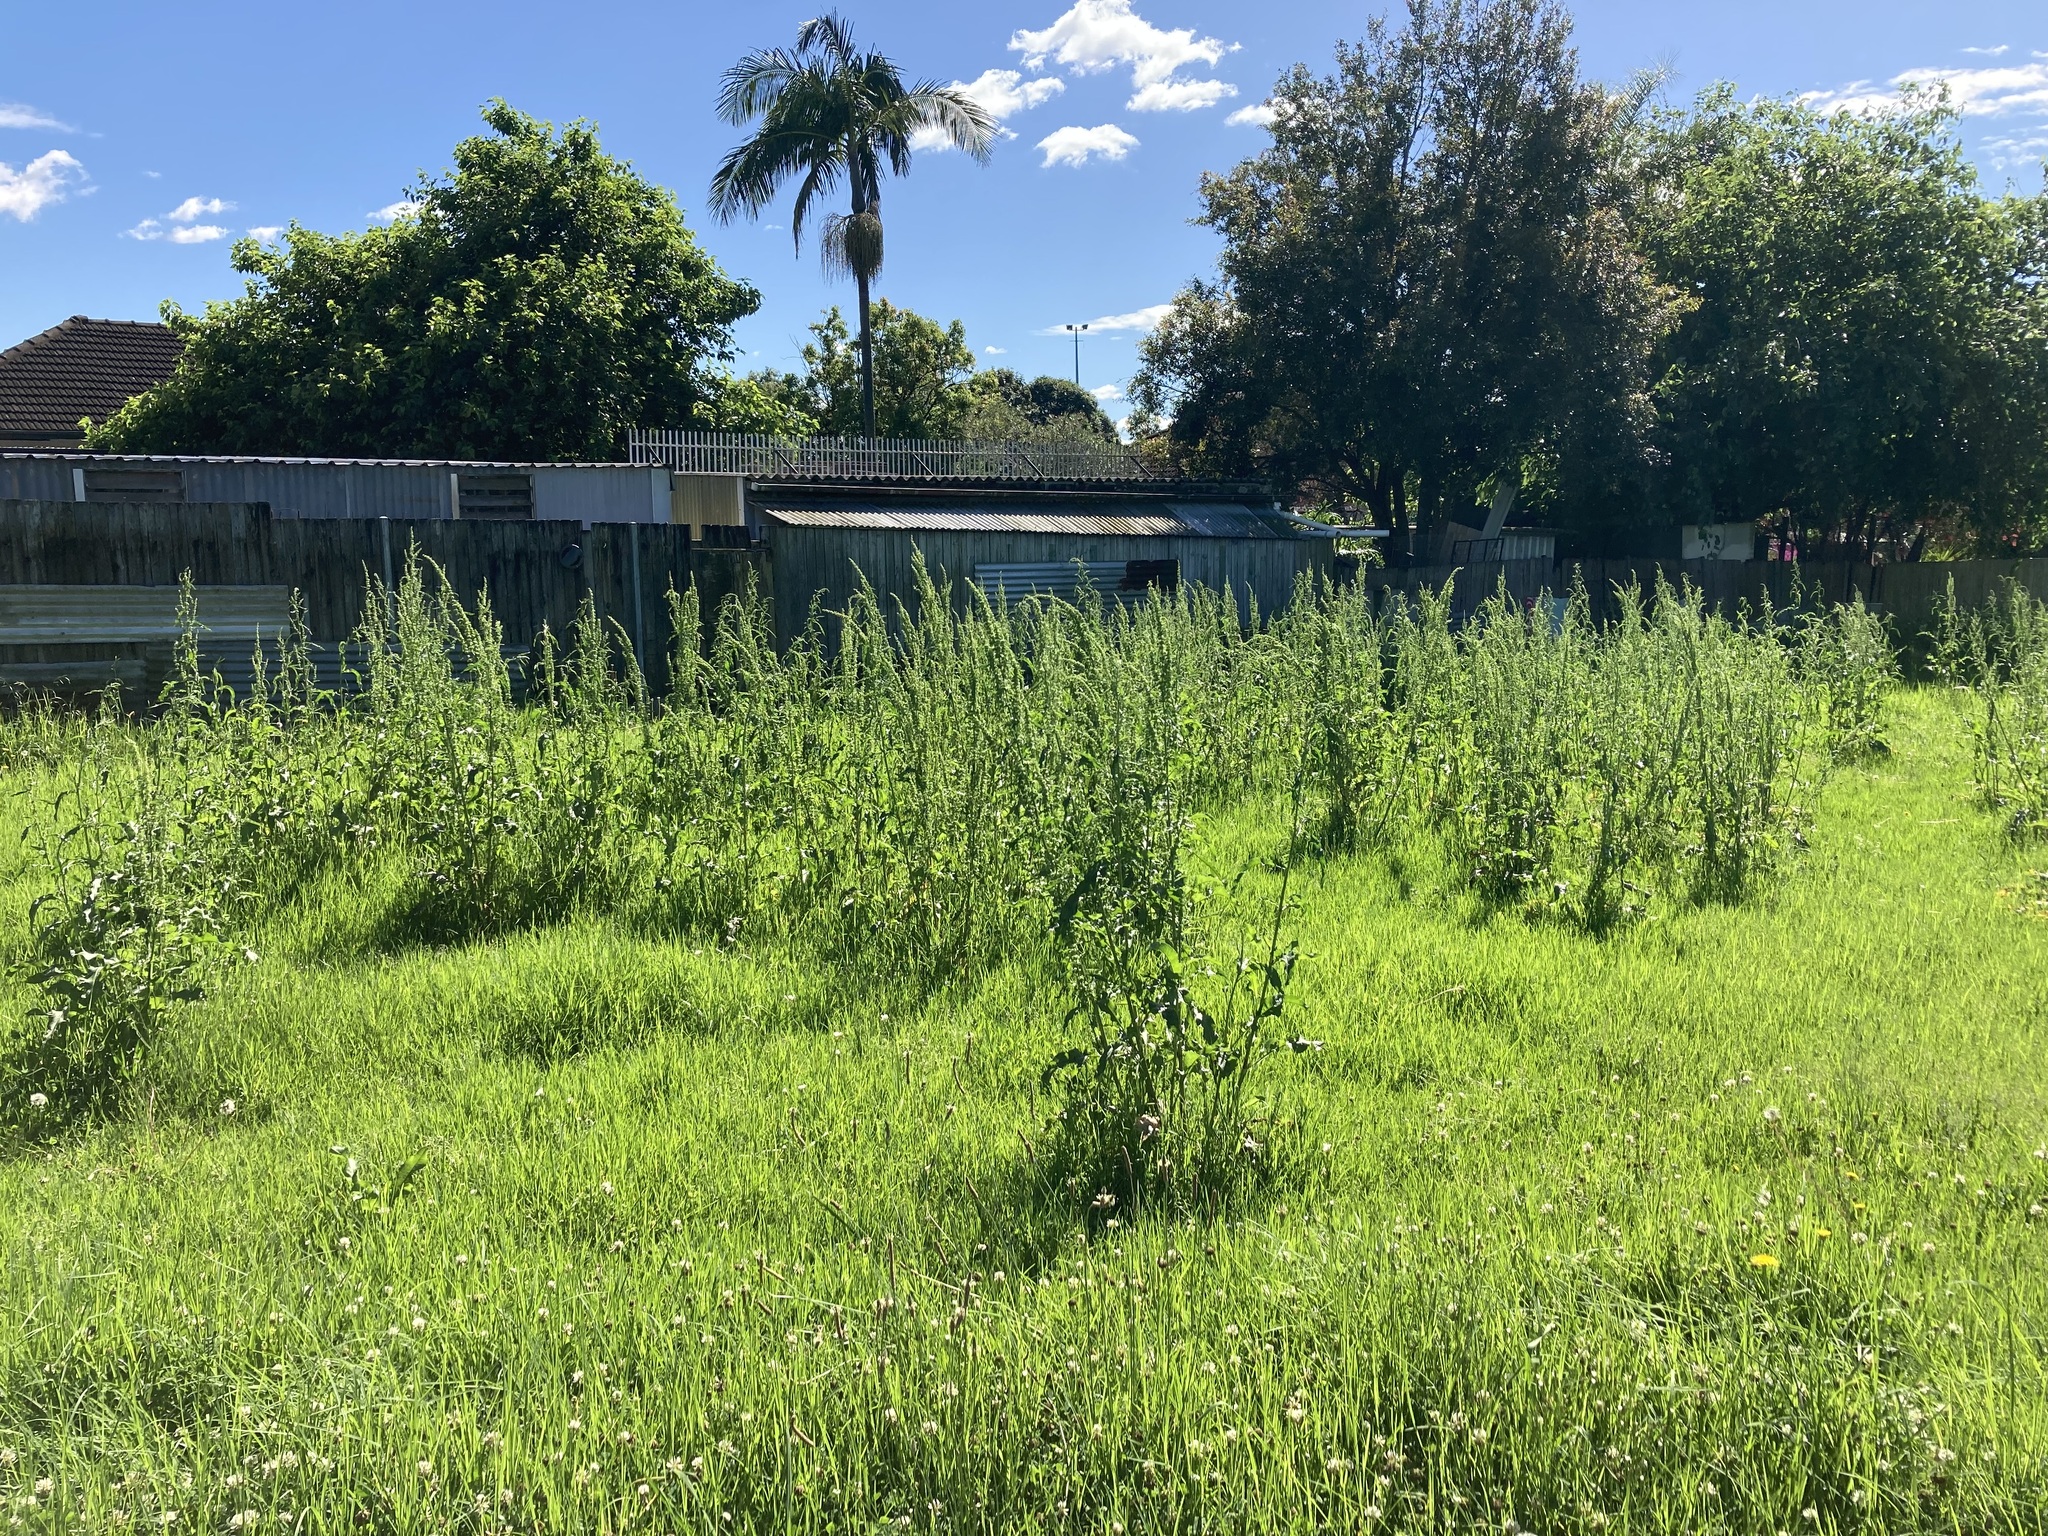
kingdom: Plantae
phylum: Tracheophyta
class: Magnoliopsida
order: Caryophyllales
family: Polygonaceae
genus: Rumex
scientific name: Rumex crispus
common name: Curled dock
